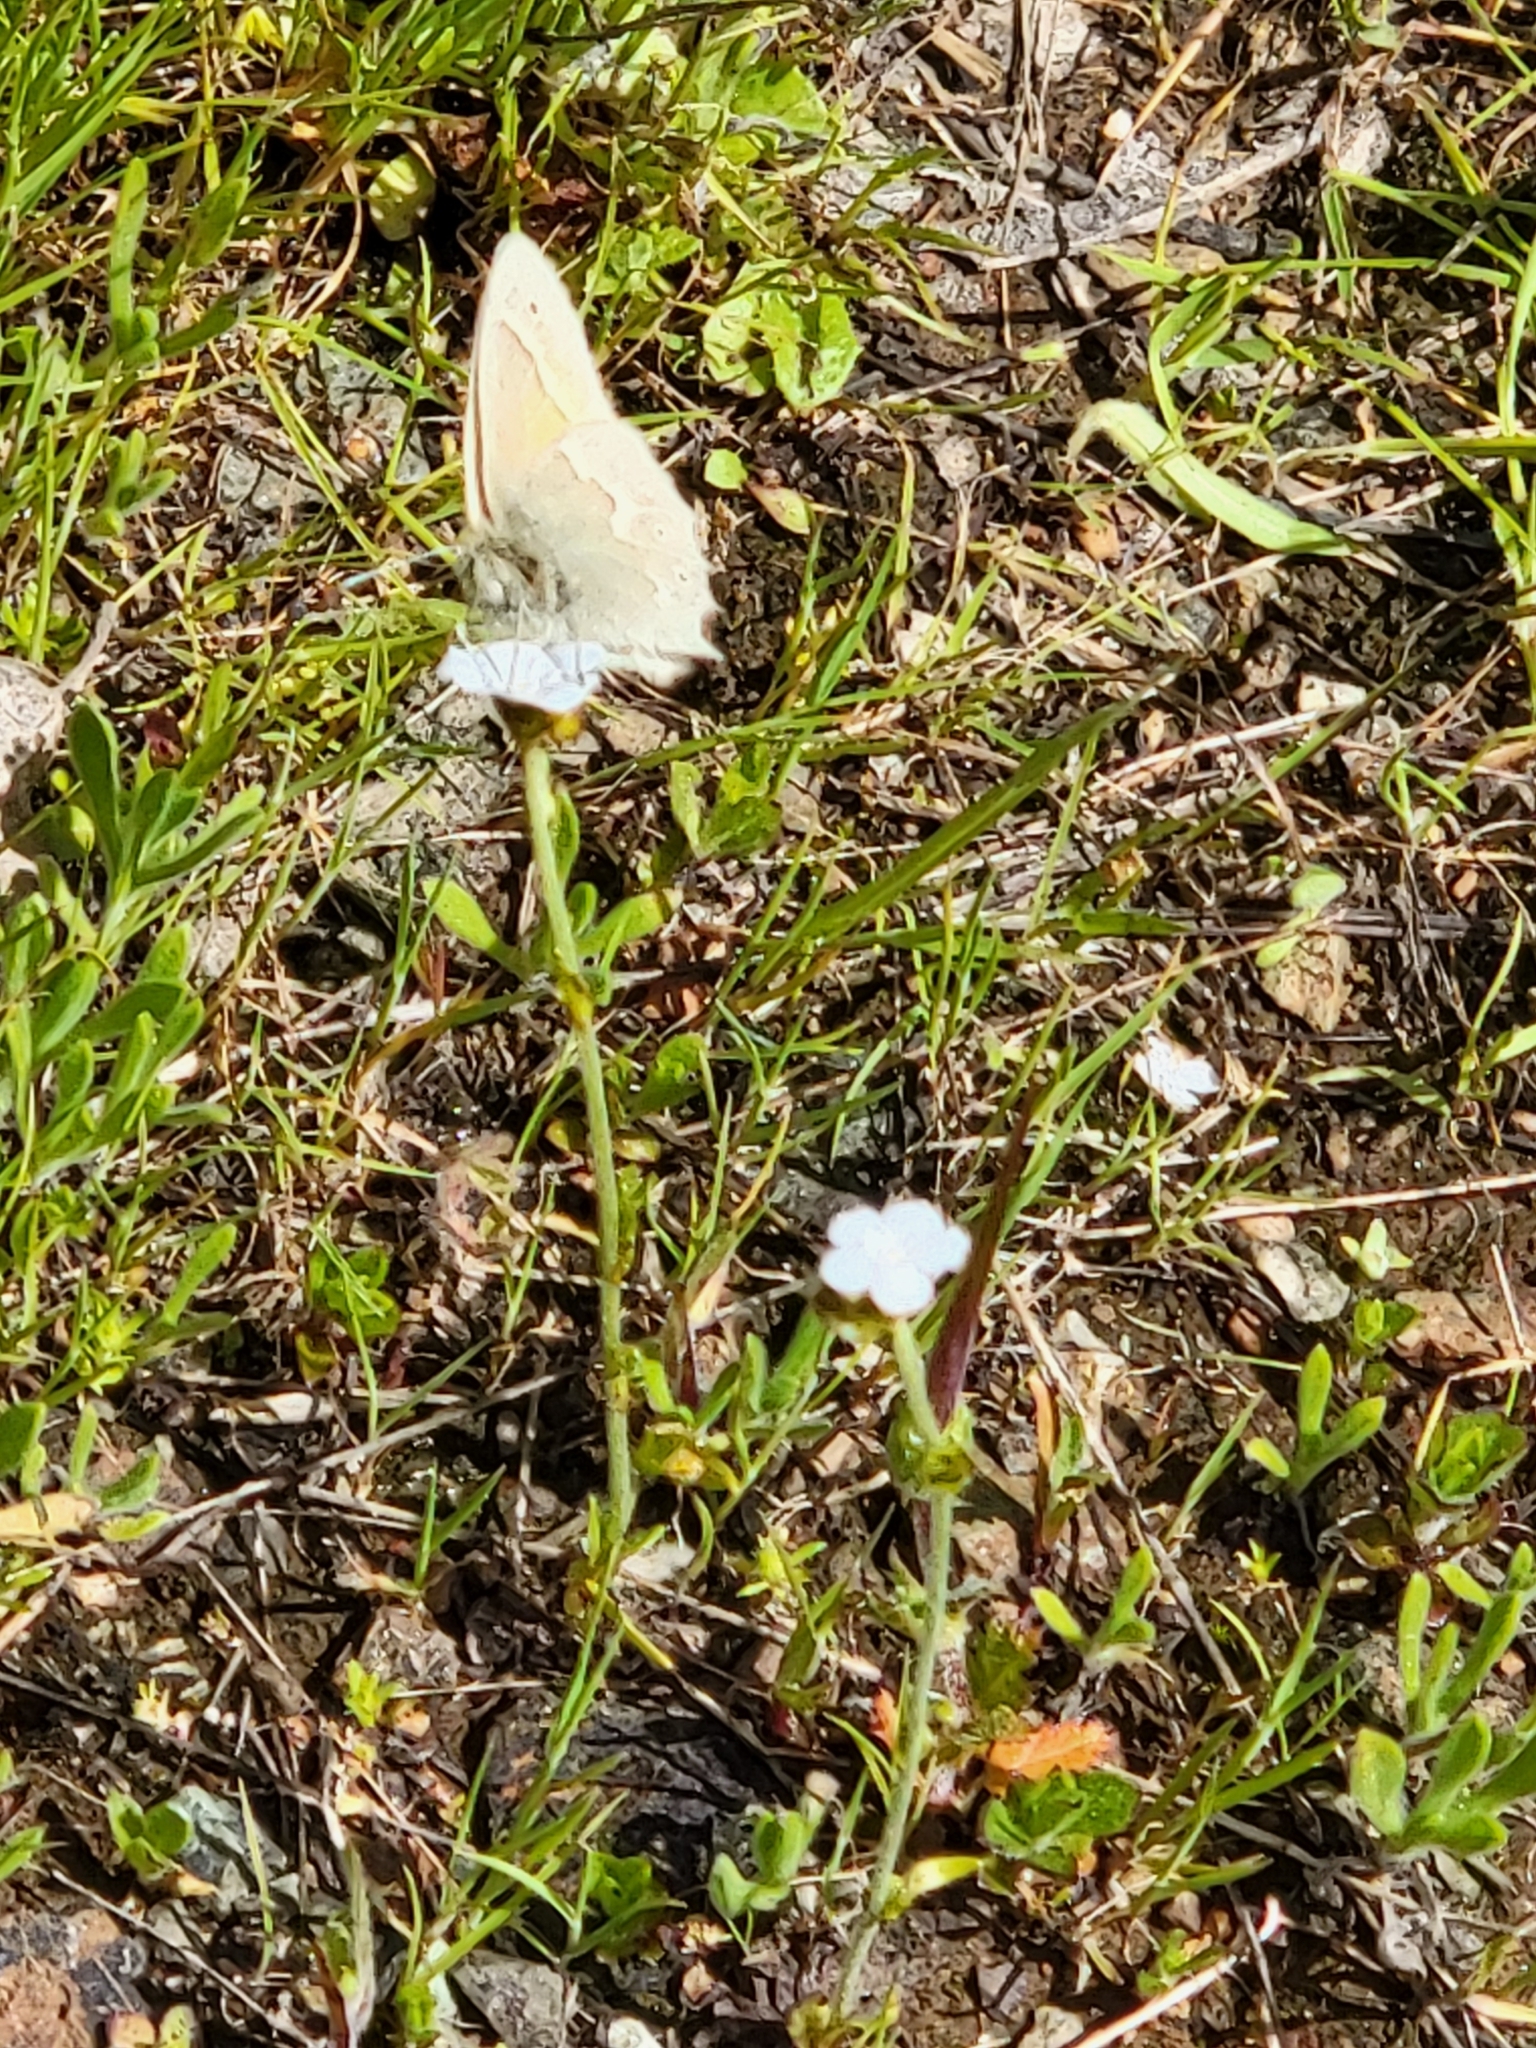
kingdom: Animalia
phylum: Arthropoda
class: Insecta
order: Lepidoptera
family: Nymphalidae
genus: Coenonympha
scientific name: Coenonympha california
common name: Common ringlet
